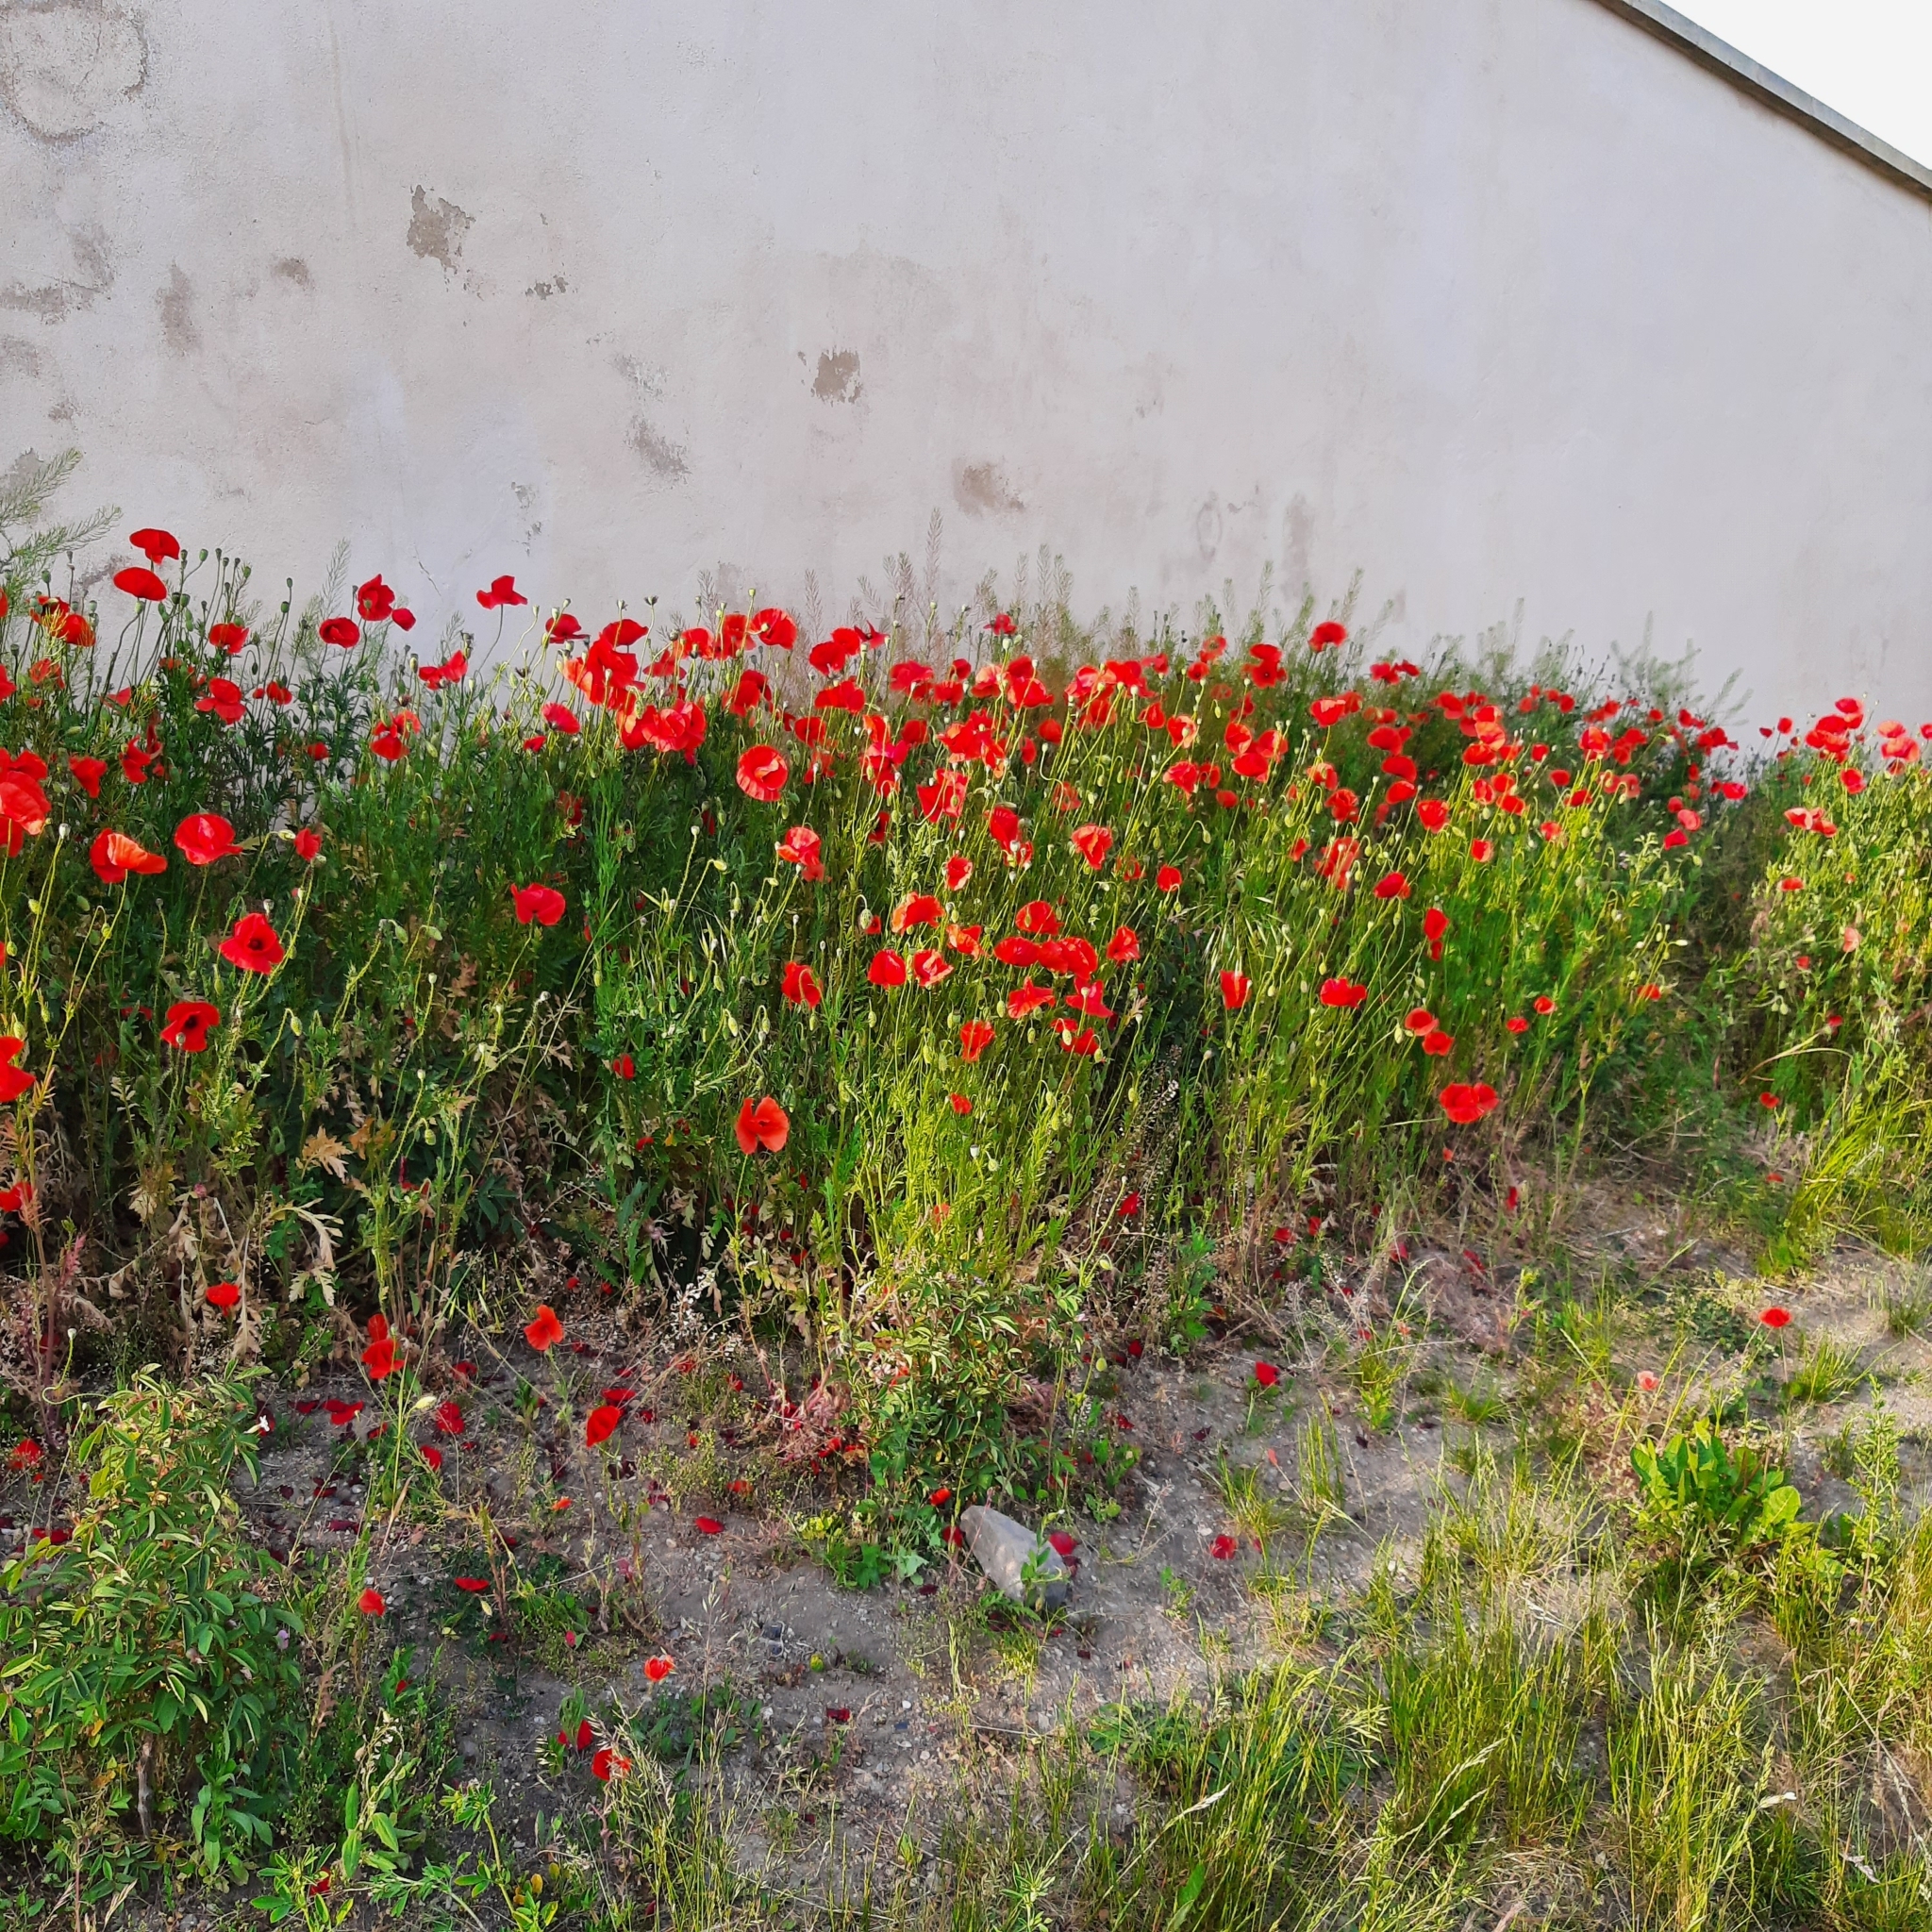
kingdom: Plantae
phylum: Tracheophyta
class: Magnoliopsida
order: Ranunculales
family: Papaveraceae
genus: Papaver
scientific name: Papaver rhoeas
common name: Corn poppy
